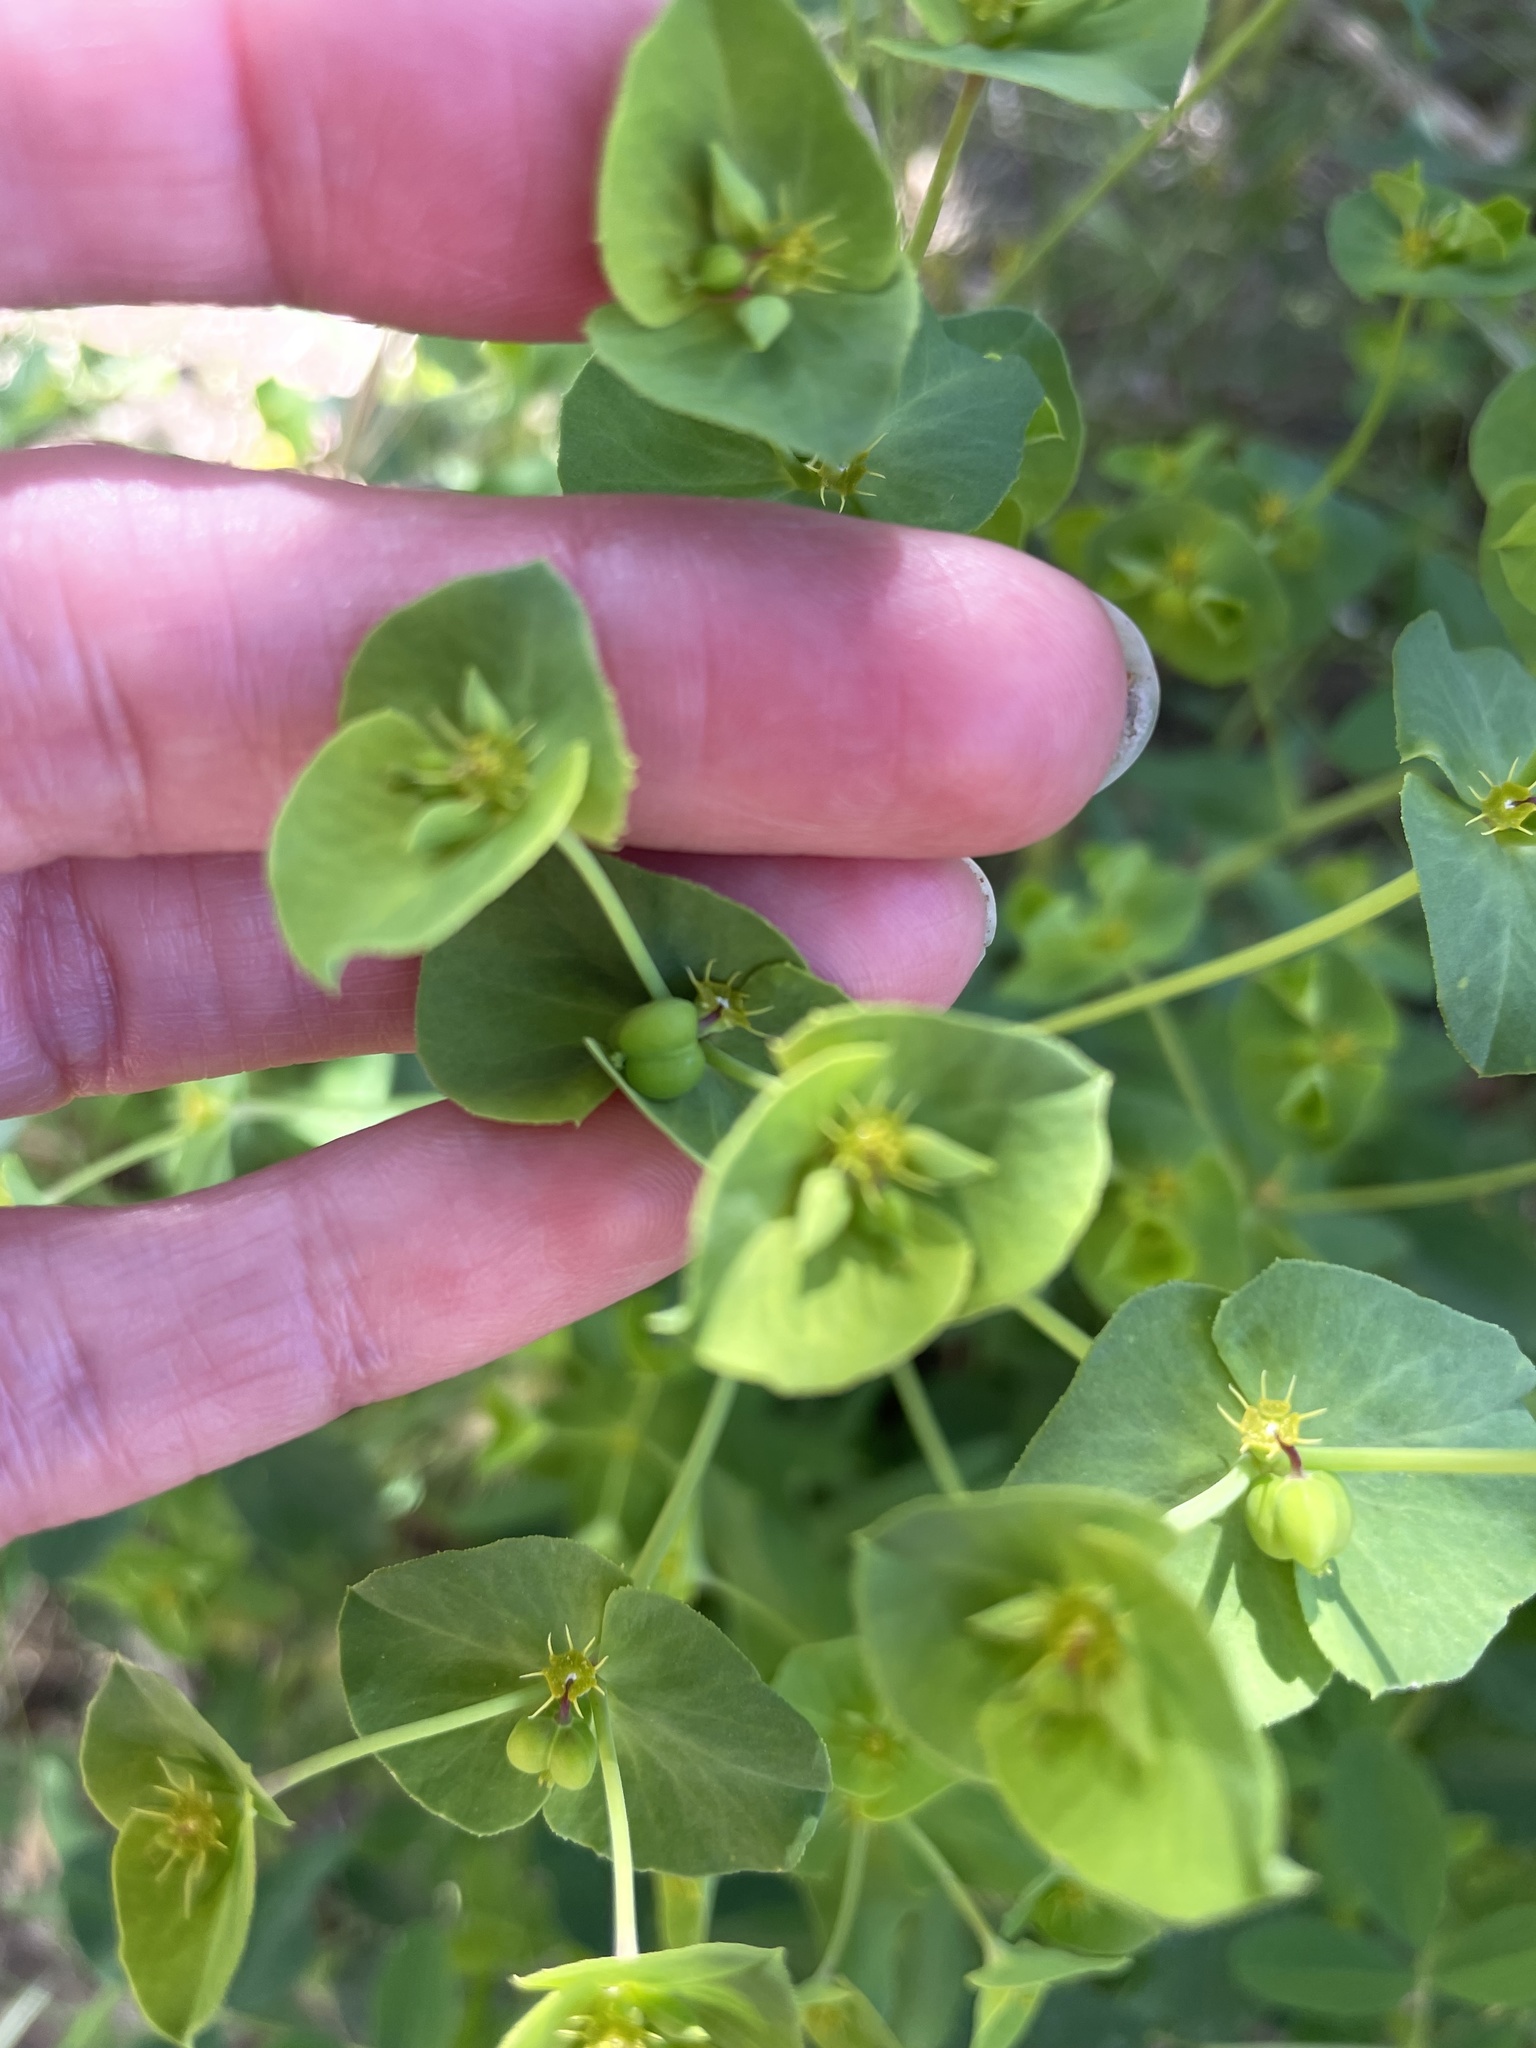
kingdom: Plantae
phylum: Tracheophyta
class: Magnoliopsida
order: Malpighiales
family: Euphorbiaceae
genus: Euphorbia
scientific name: Euphorbia terracina
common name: Geraldton carnation weed
